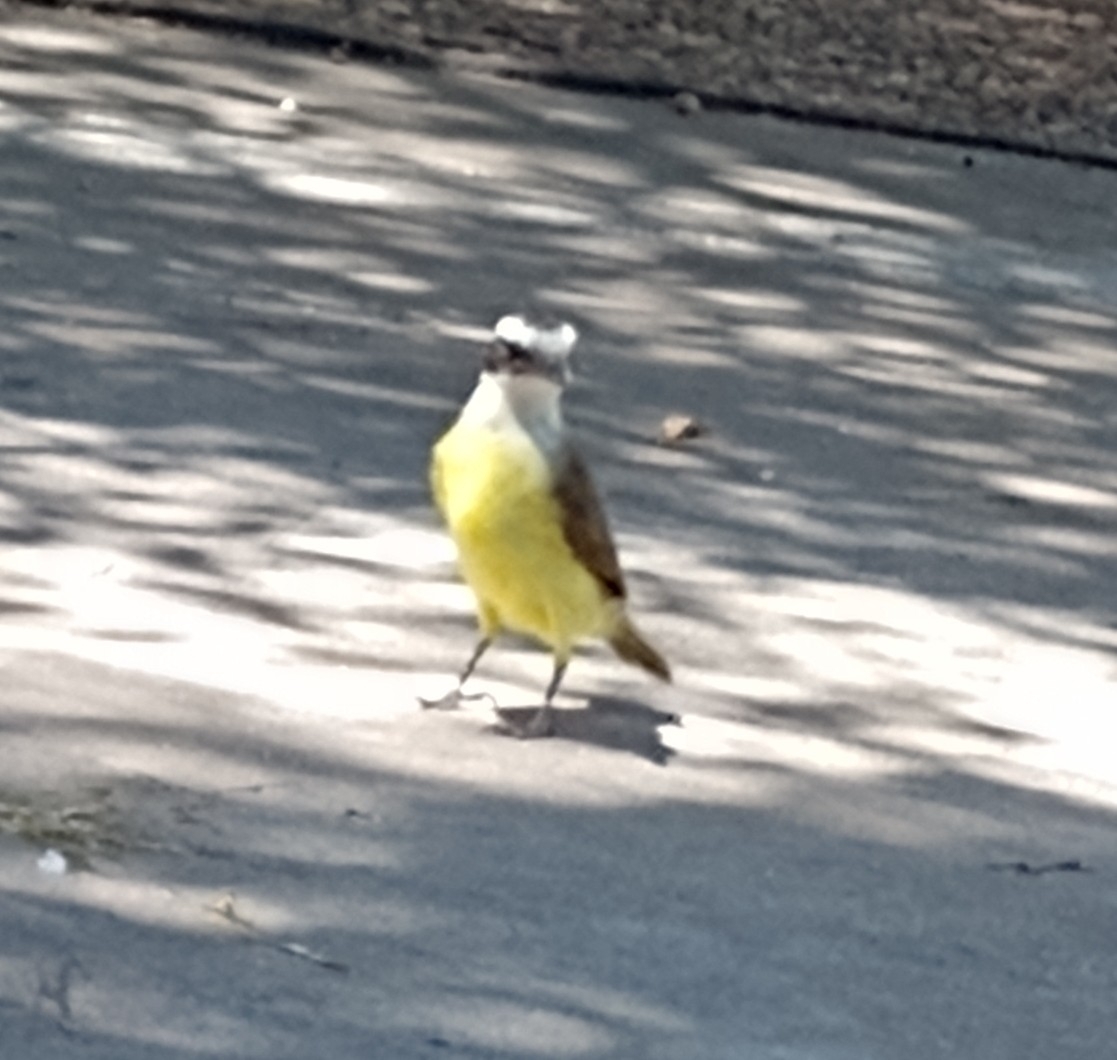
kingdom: Animalia
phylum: Chordata
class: Aves
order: Passeriformes
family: Tyrannidae
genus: Pitangus
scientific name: Pitangus sulphuratus
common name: Great kiskadee
